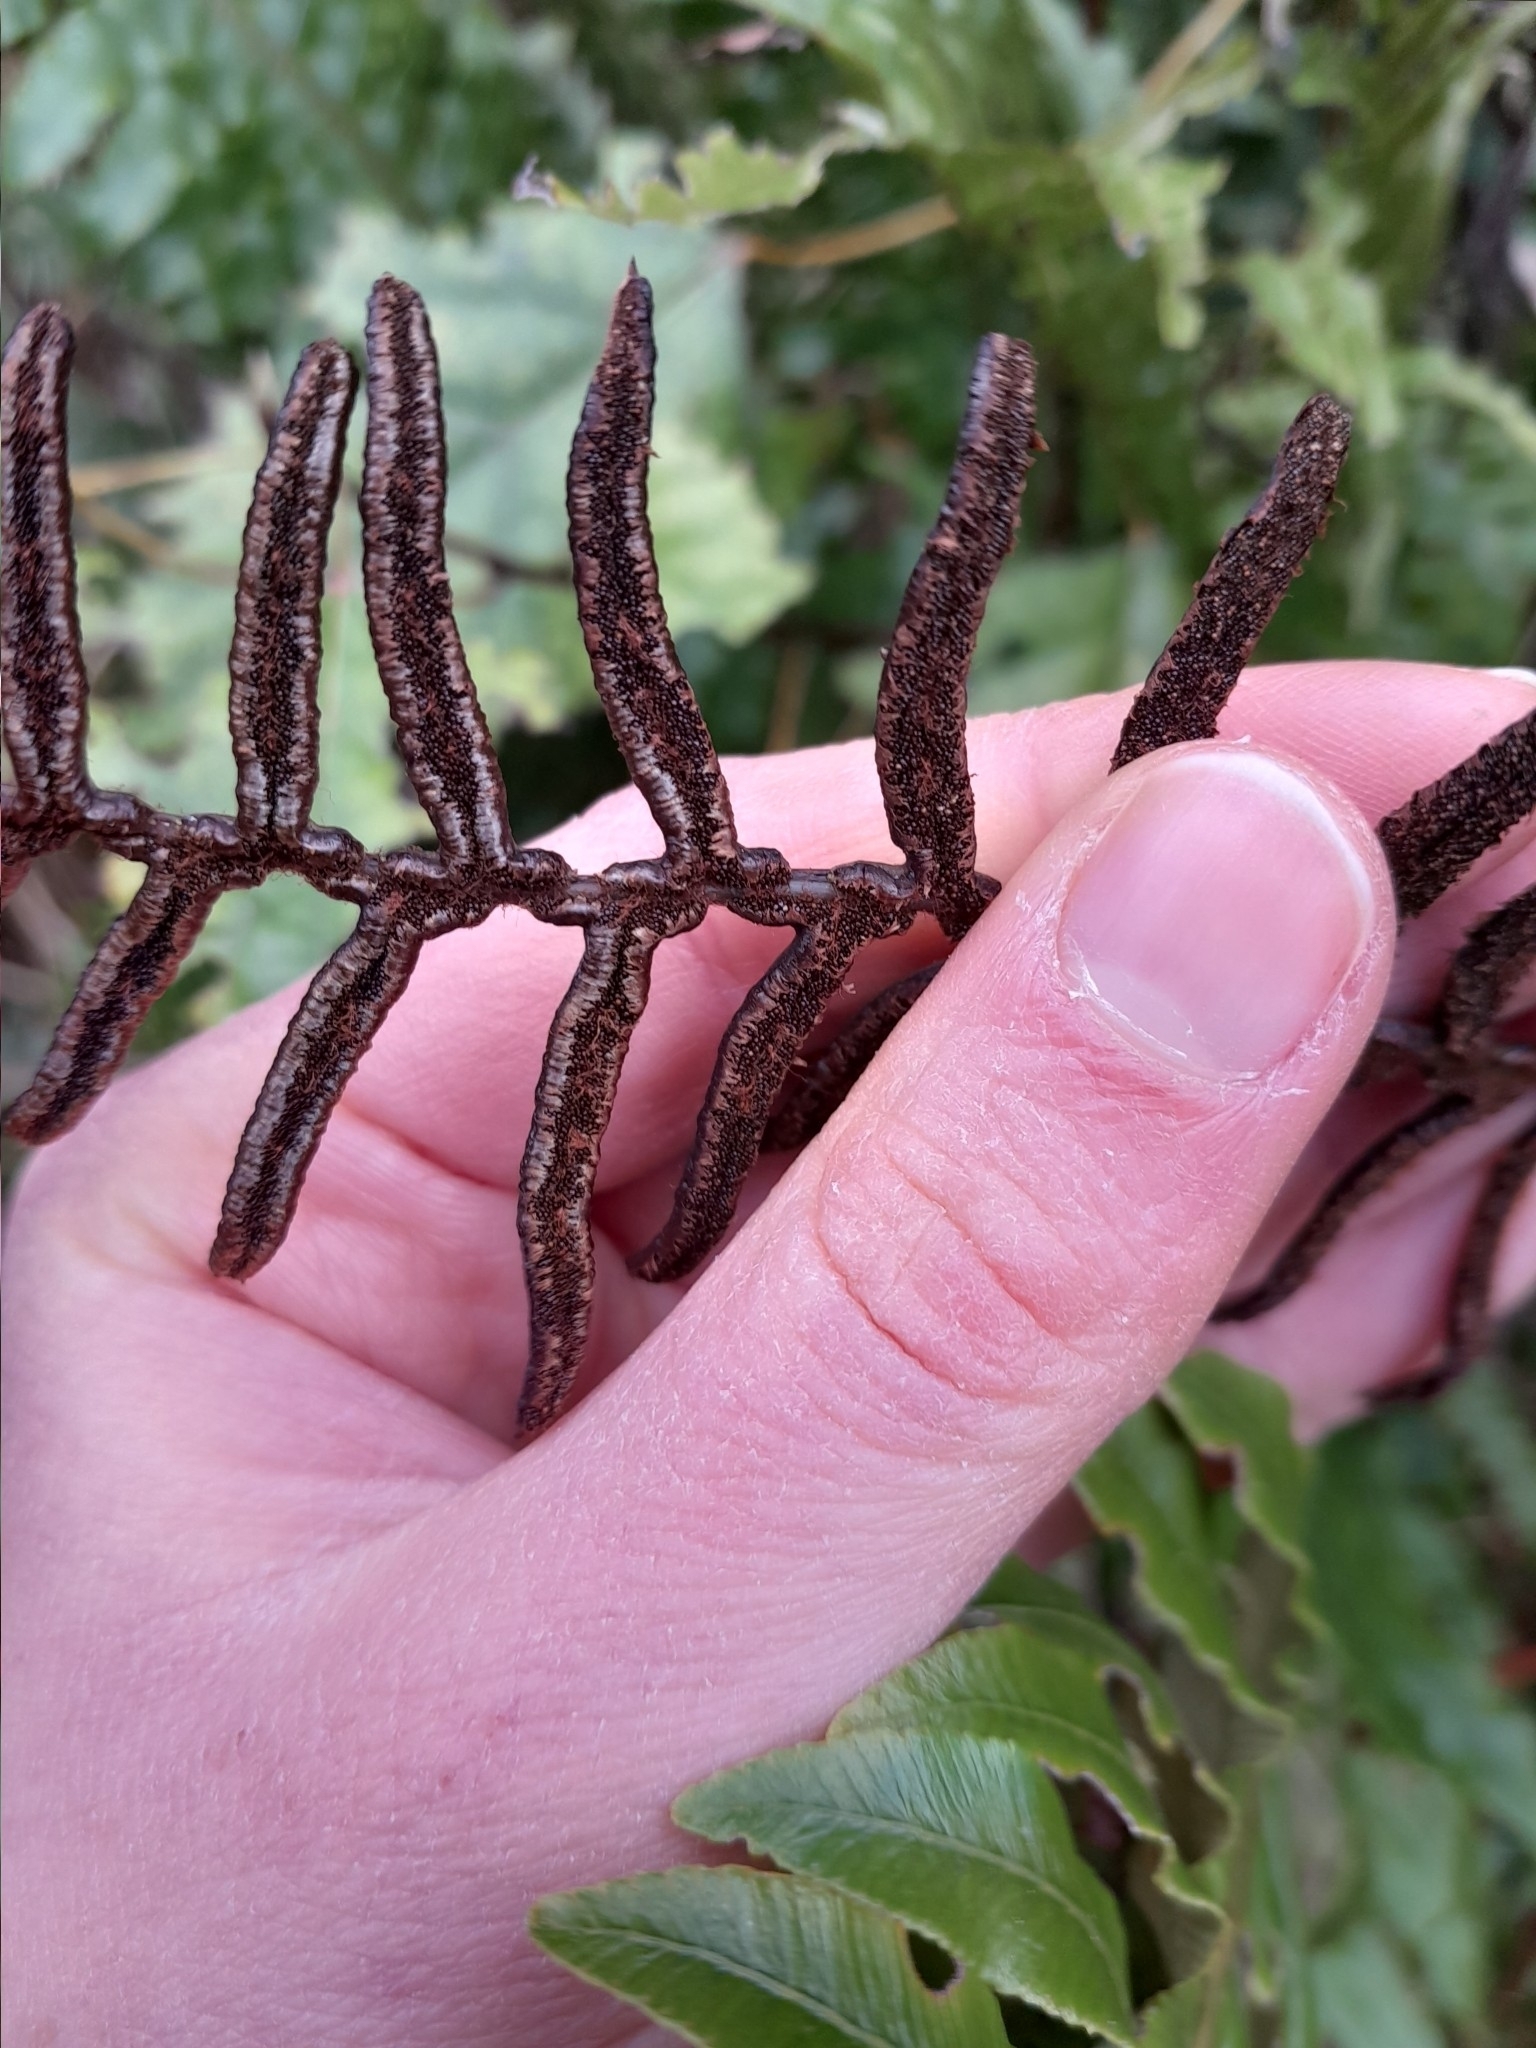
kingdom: Plantae
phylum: Tracheophyta
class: Polypodiopsida
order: Polypodiales
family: Blechnaceae
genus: Lomaria
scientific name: Lomaria discolor
